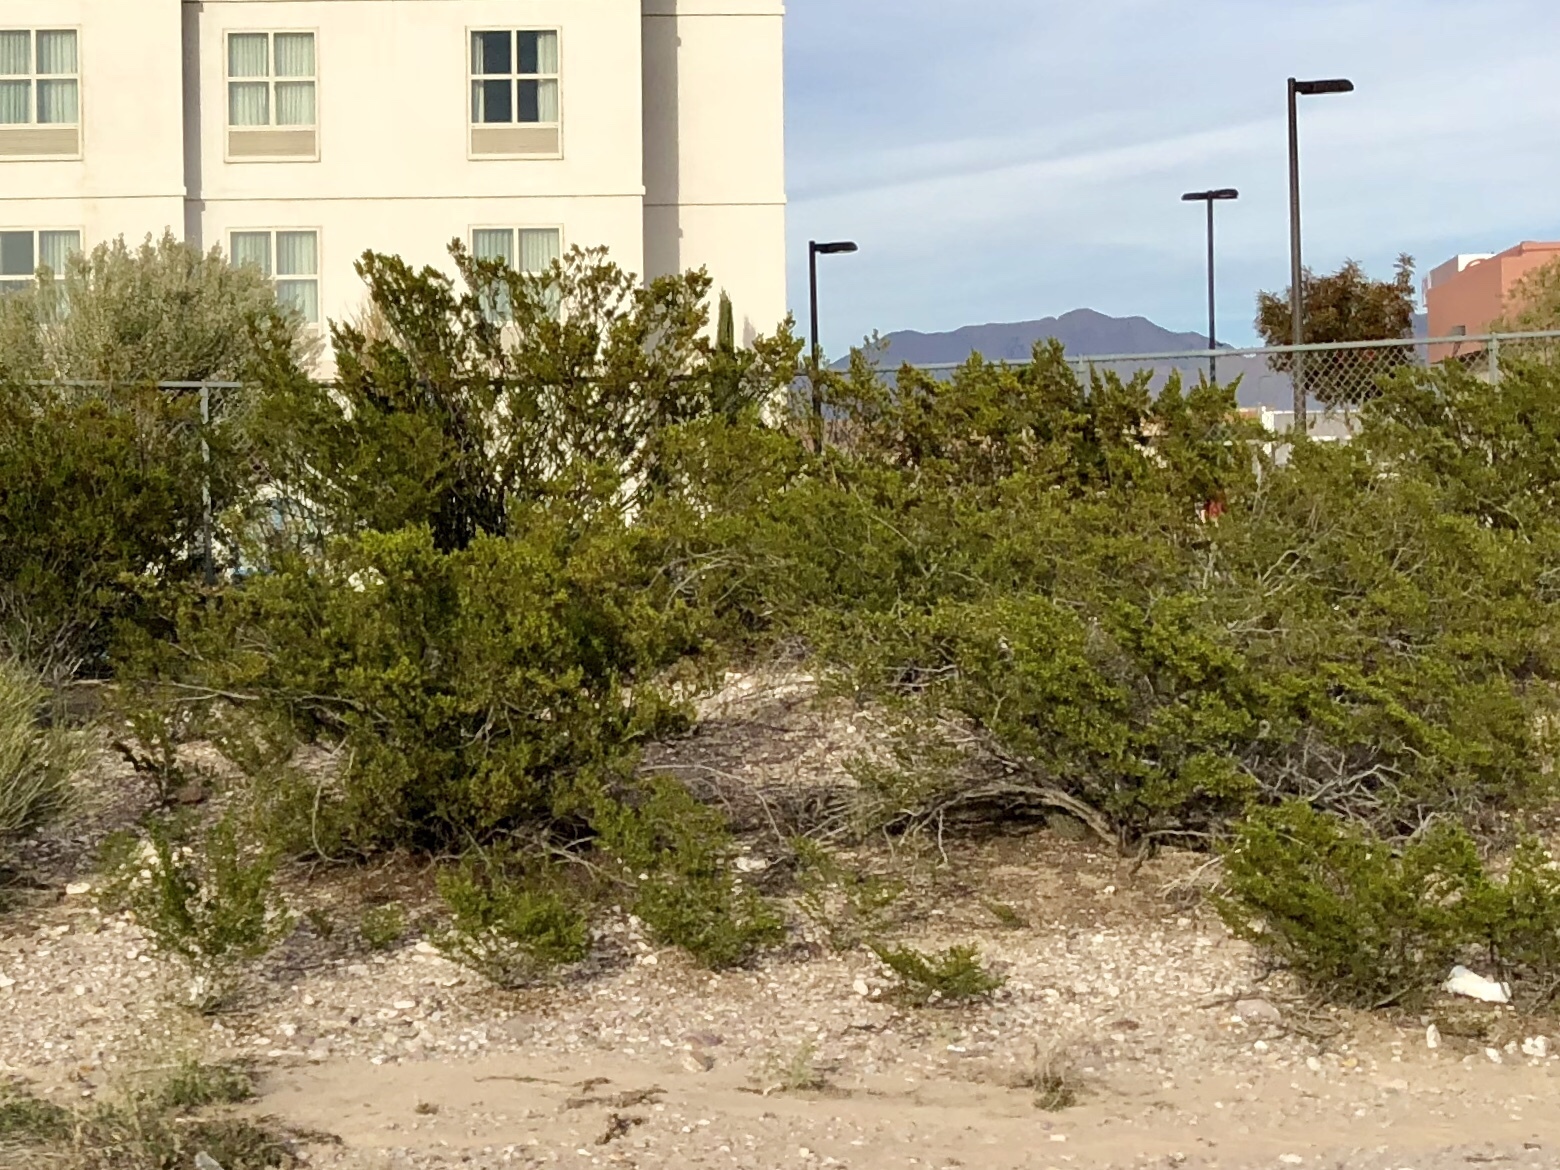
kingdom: Plantae
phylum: Tracheophyta
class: Magnoliopsida
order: Zygophyllales
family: Zygophyllaceae
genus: Larrea
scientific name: Larrea tridentata
